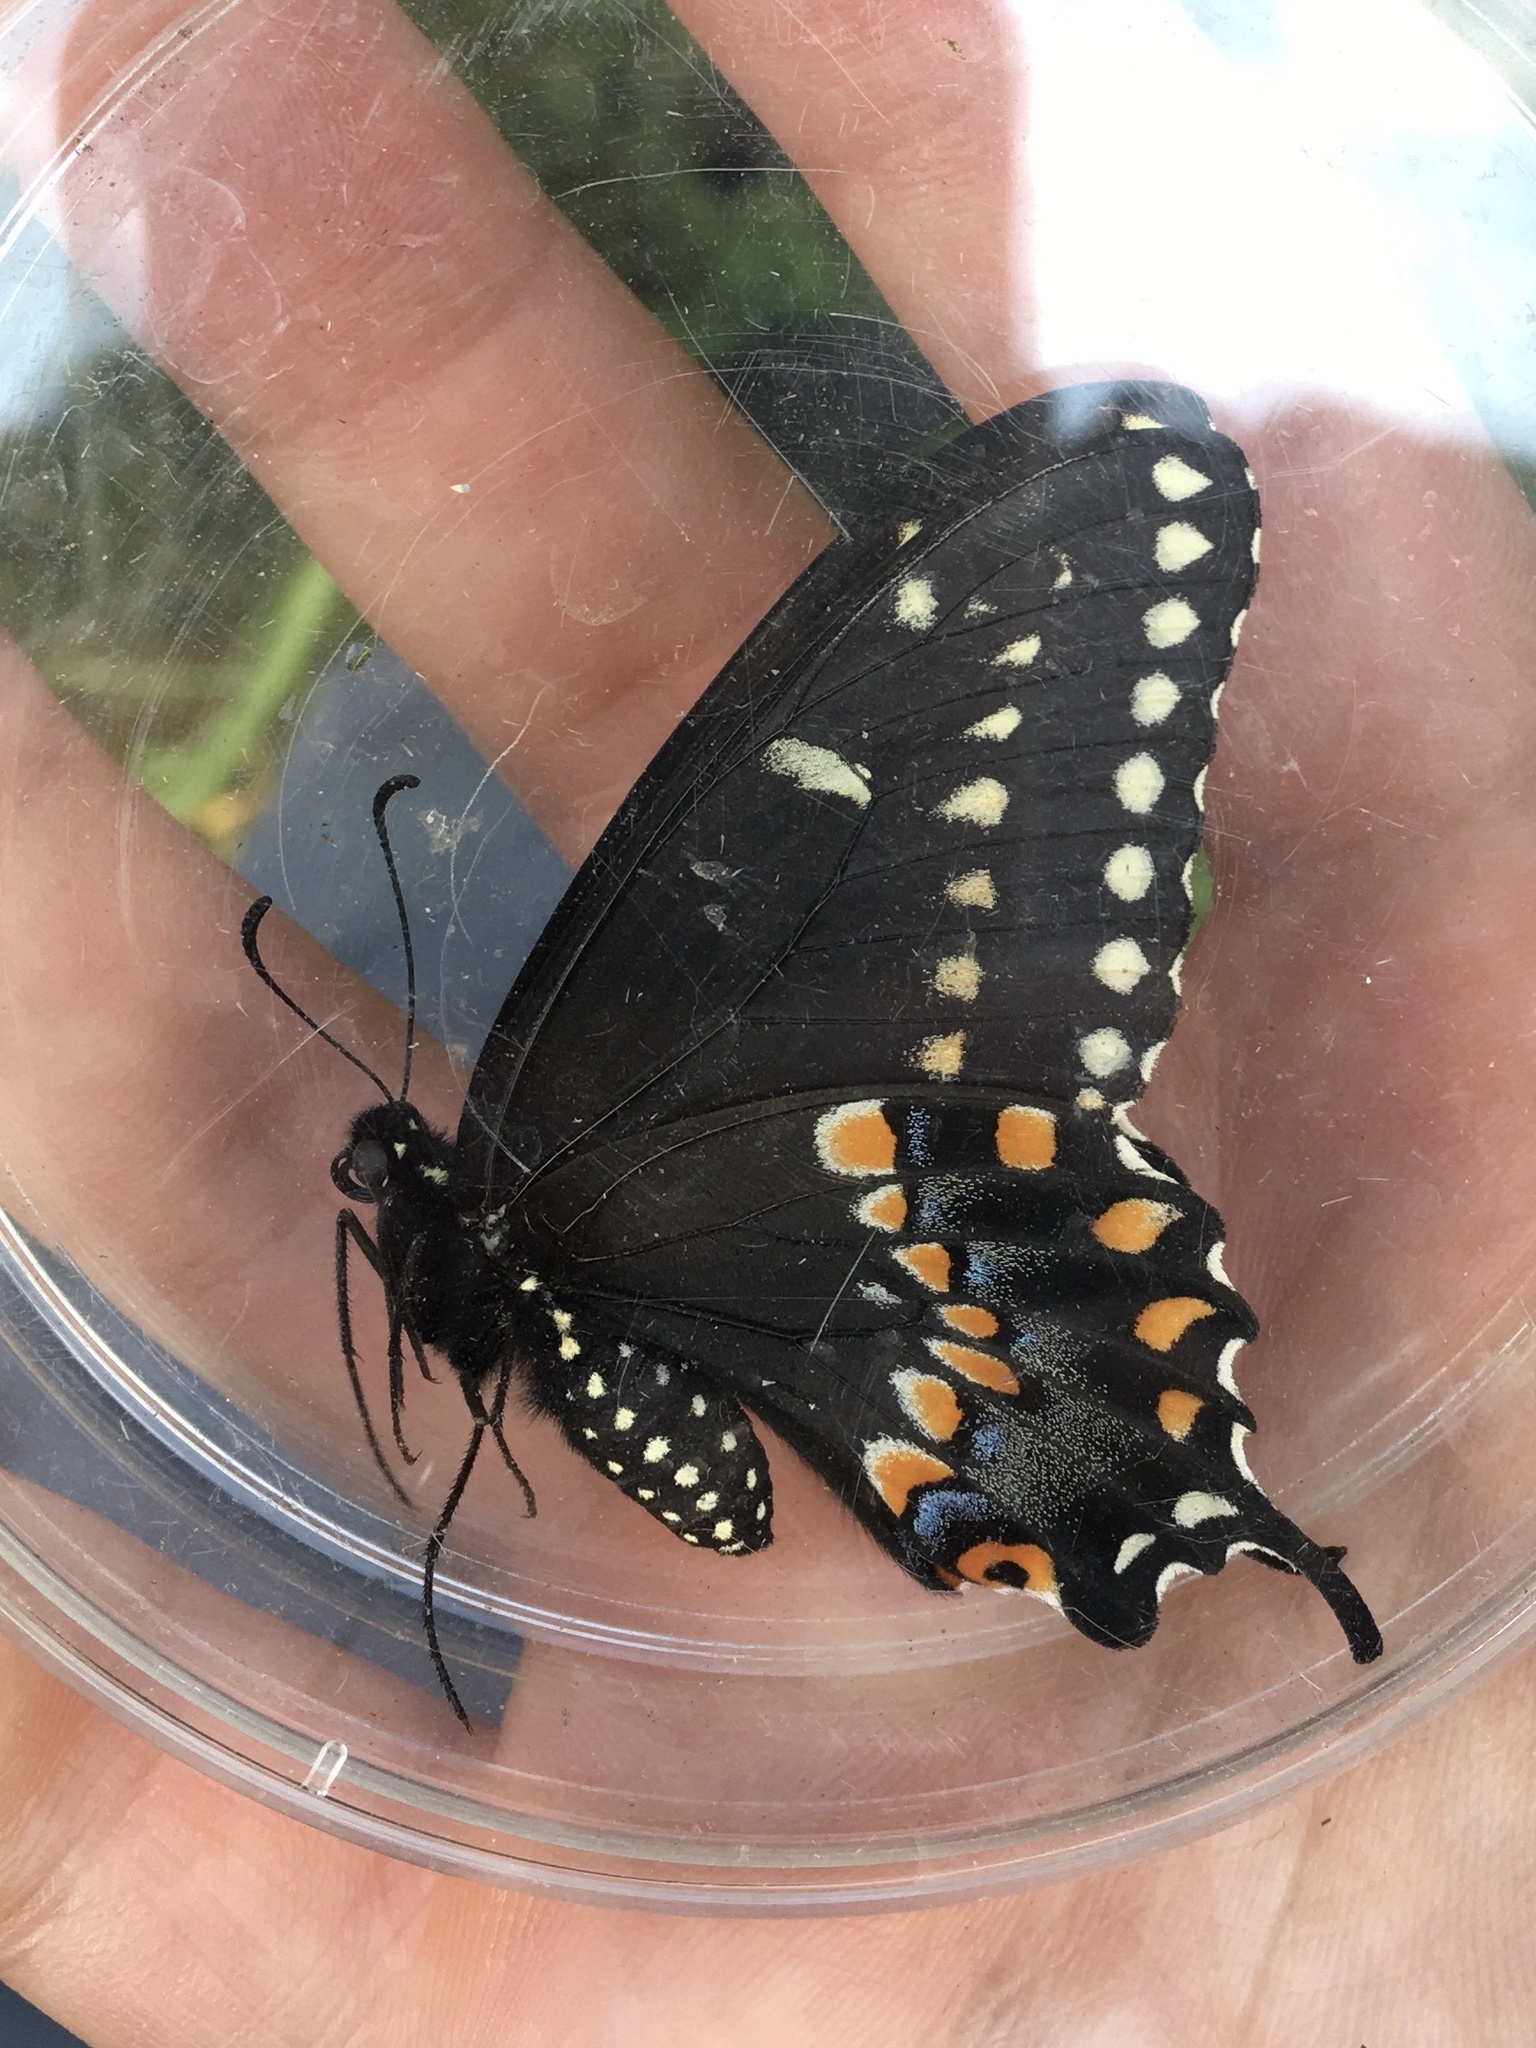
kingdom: Animalia
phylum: Arthropoda
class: Insecta
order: Lepidoptera
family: Papilionidae
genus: Papilio
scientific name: Papilio polyxenes
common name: Black swallowtail
